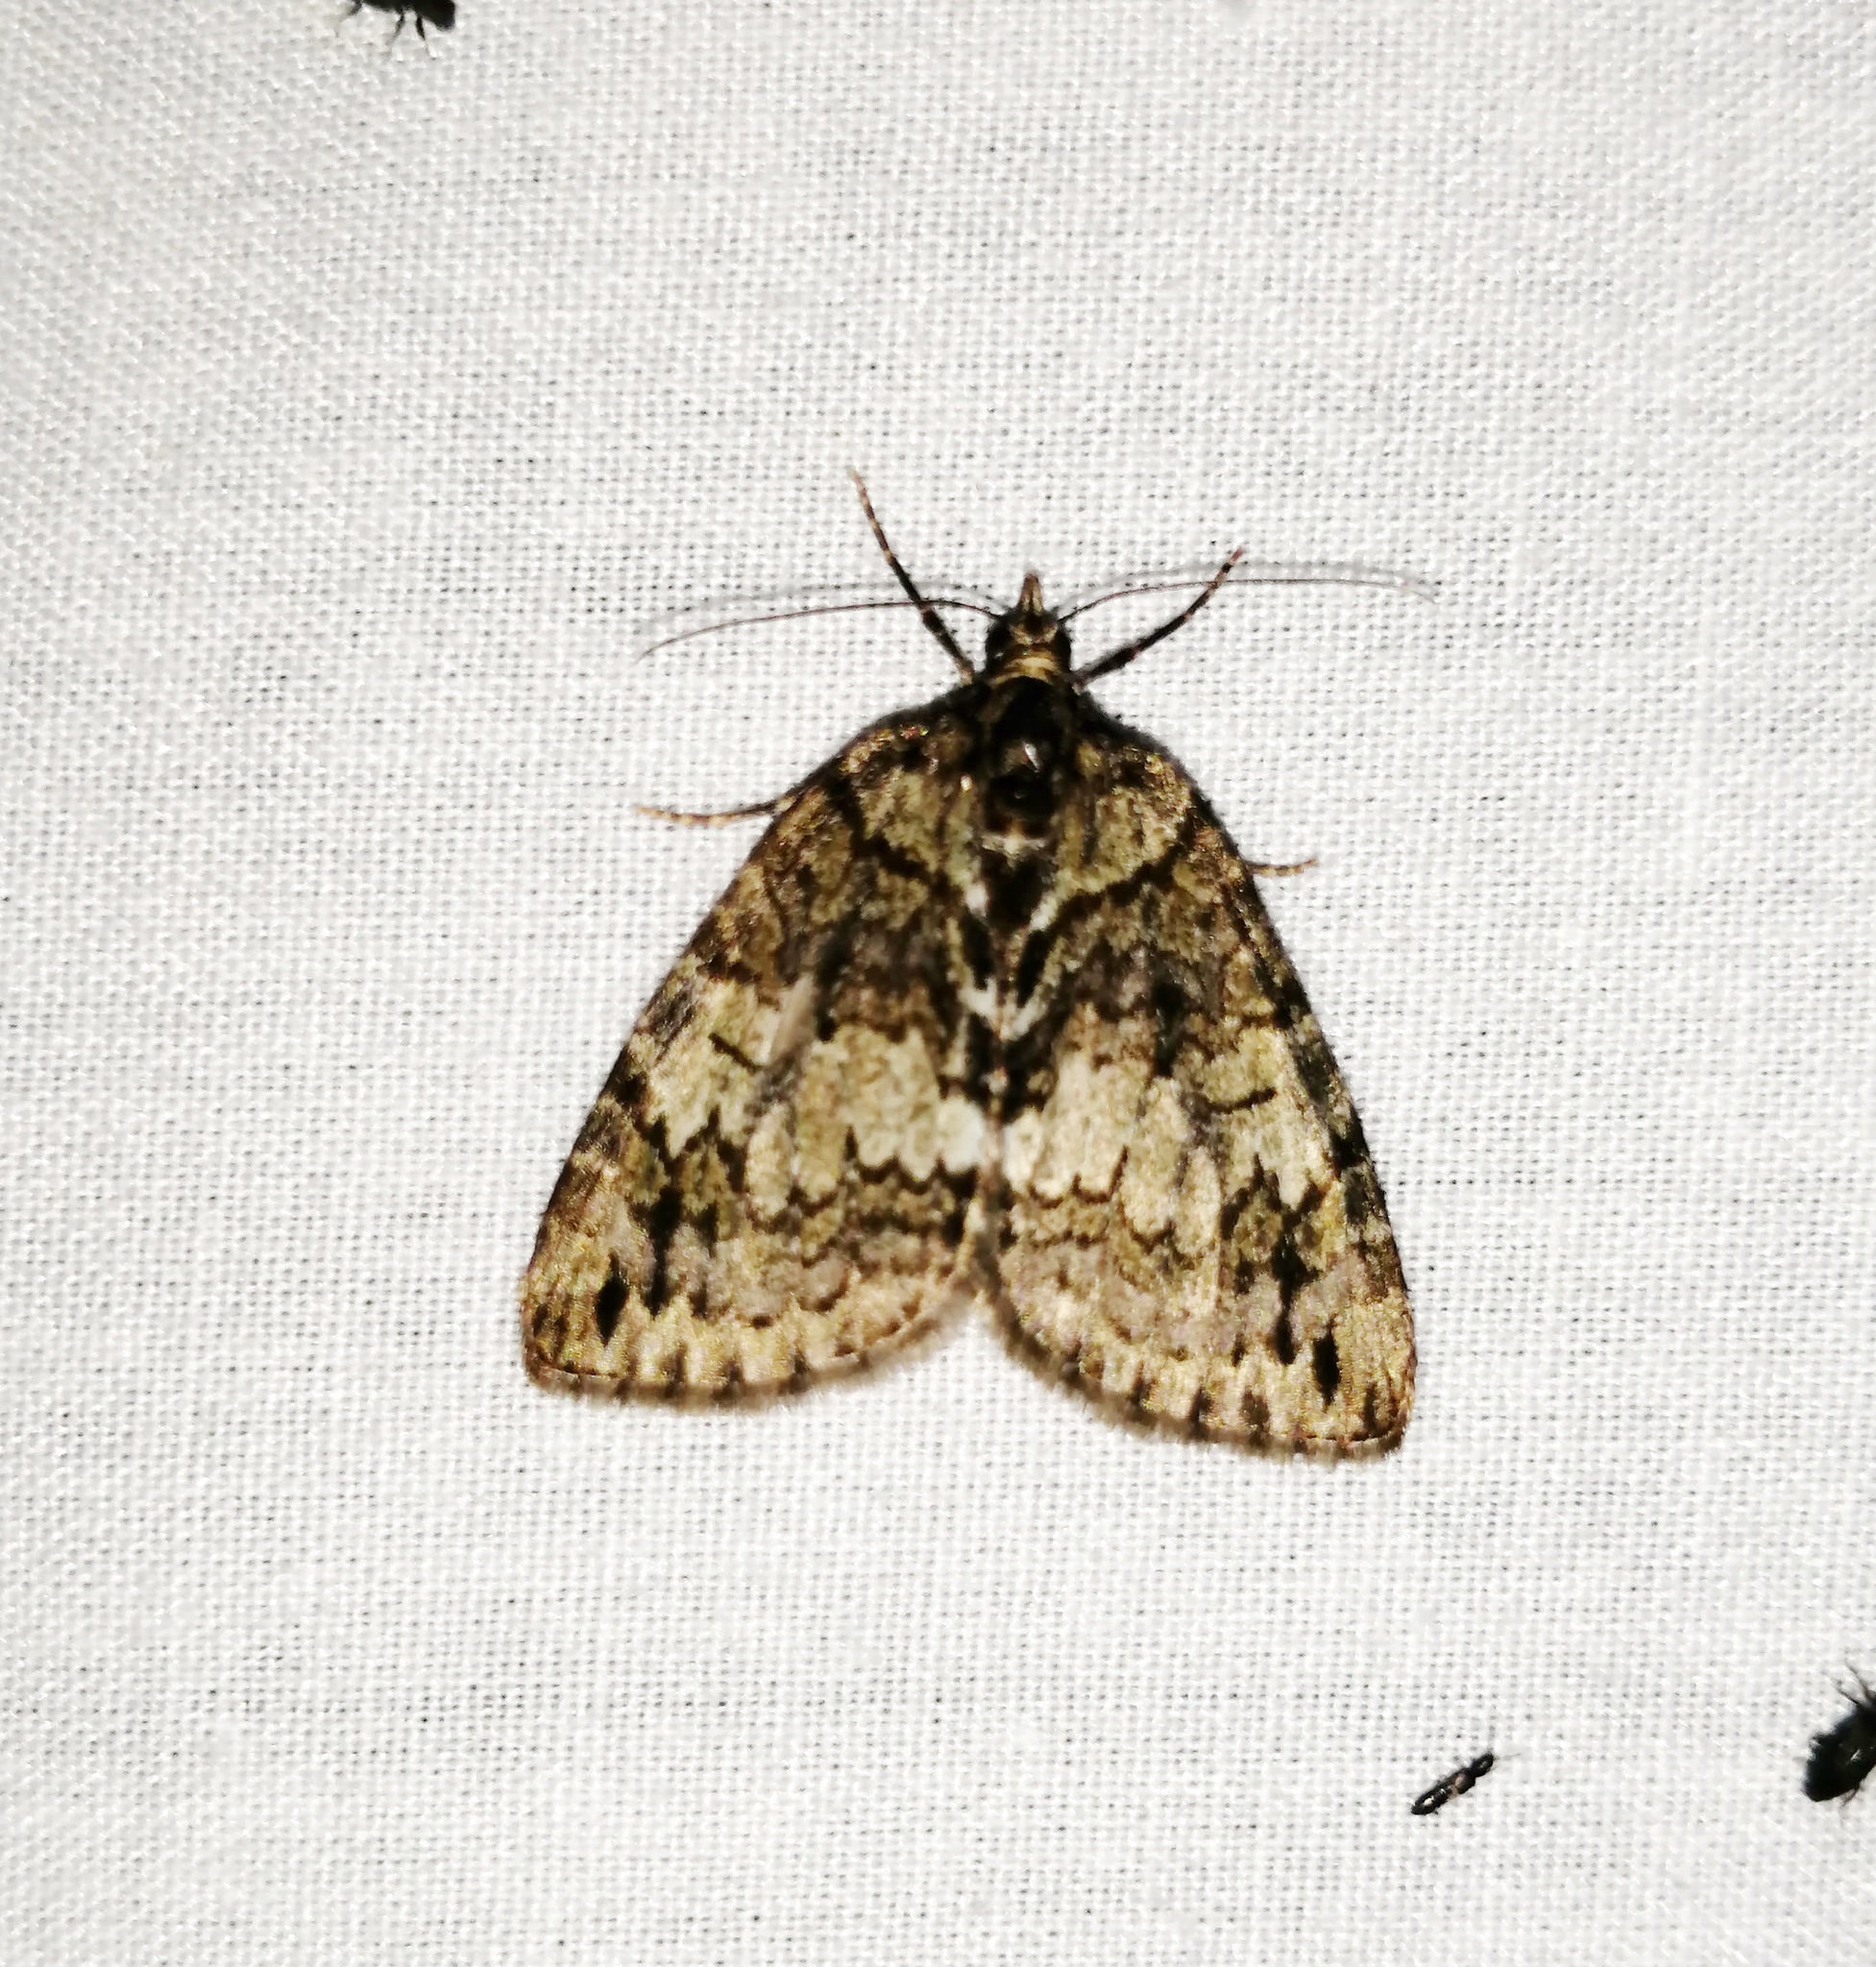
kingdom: Animalia
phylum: Arthropoda
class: Insecta
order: Lepidoptera
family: Geometridae
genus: Hydriomena
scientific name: Hydriomena transfigurata
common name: Transfigured hydriomena
